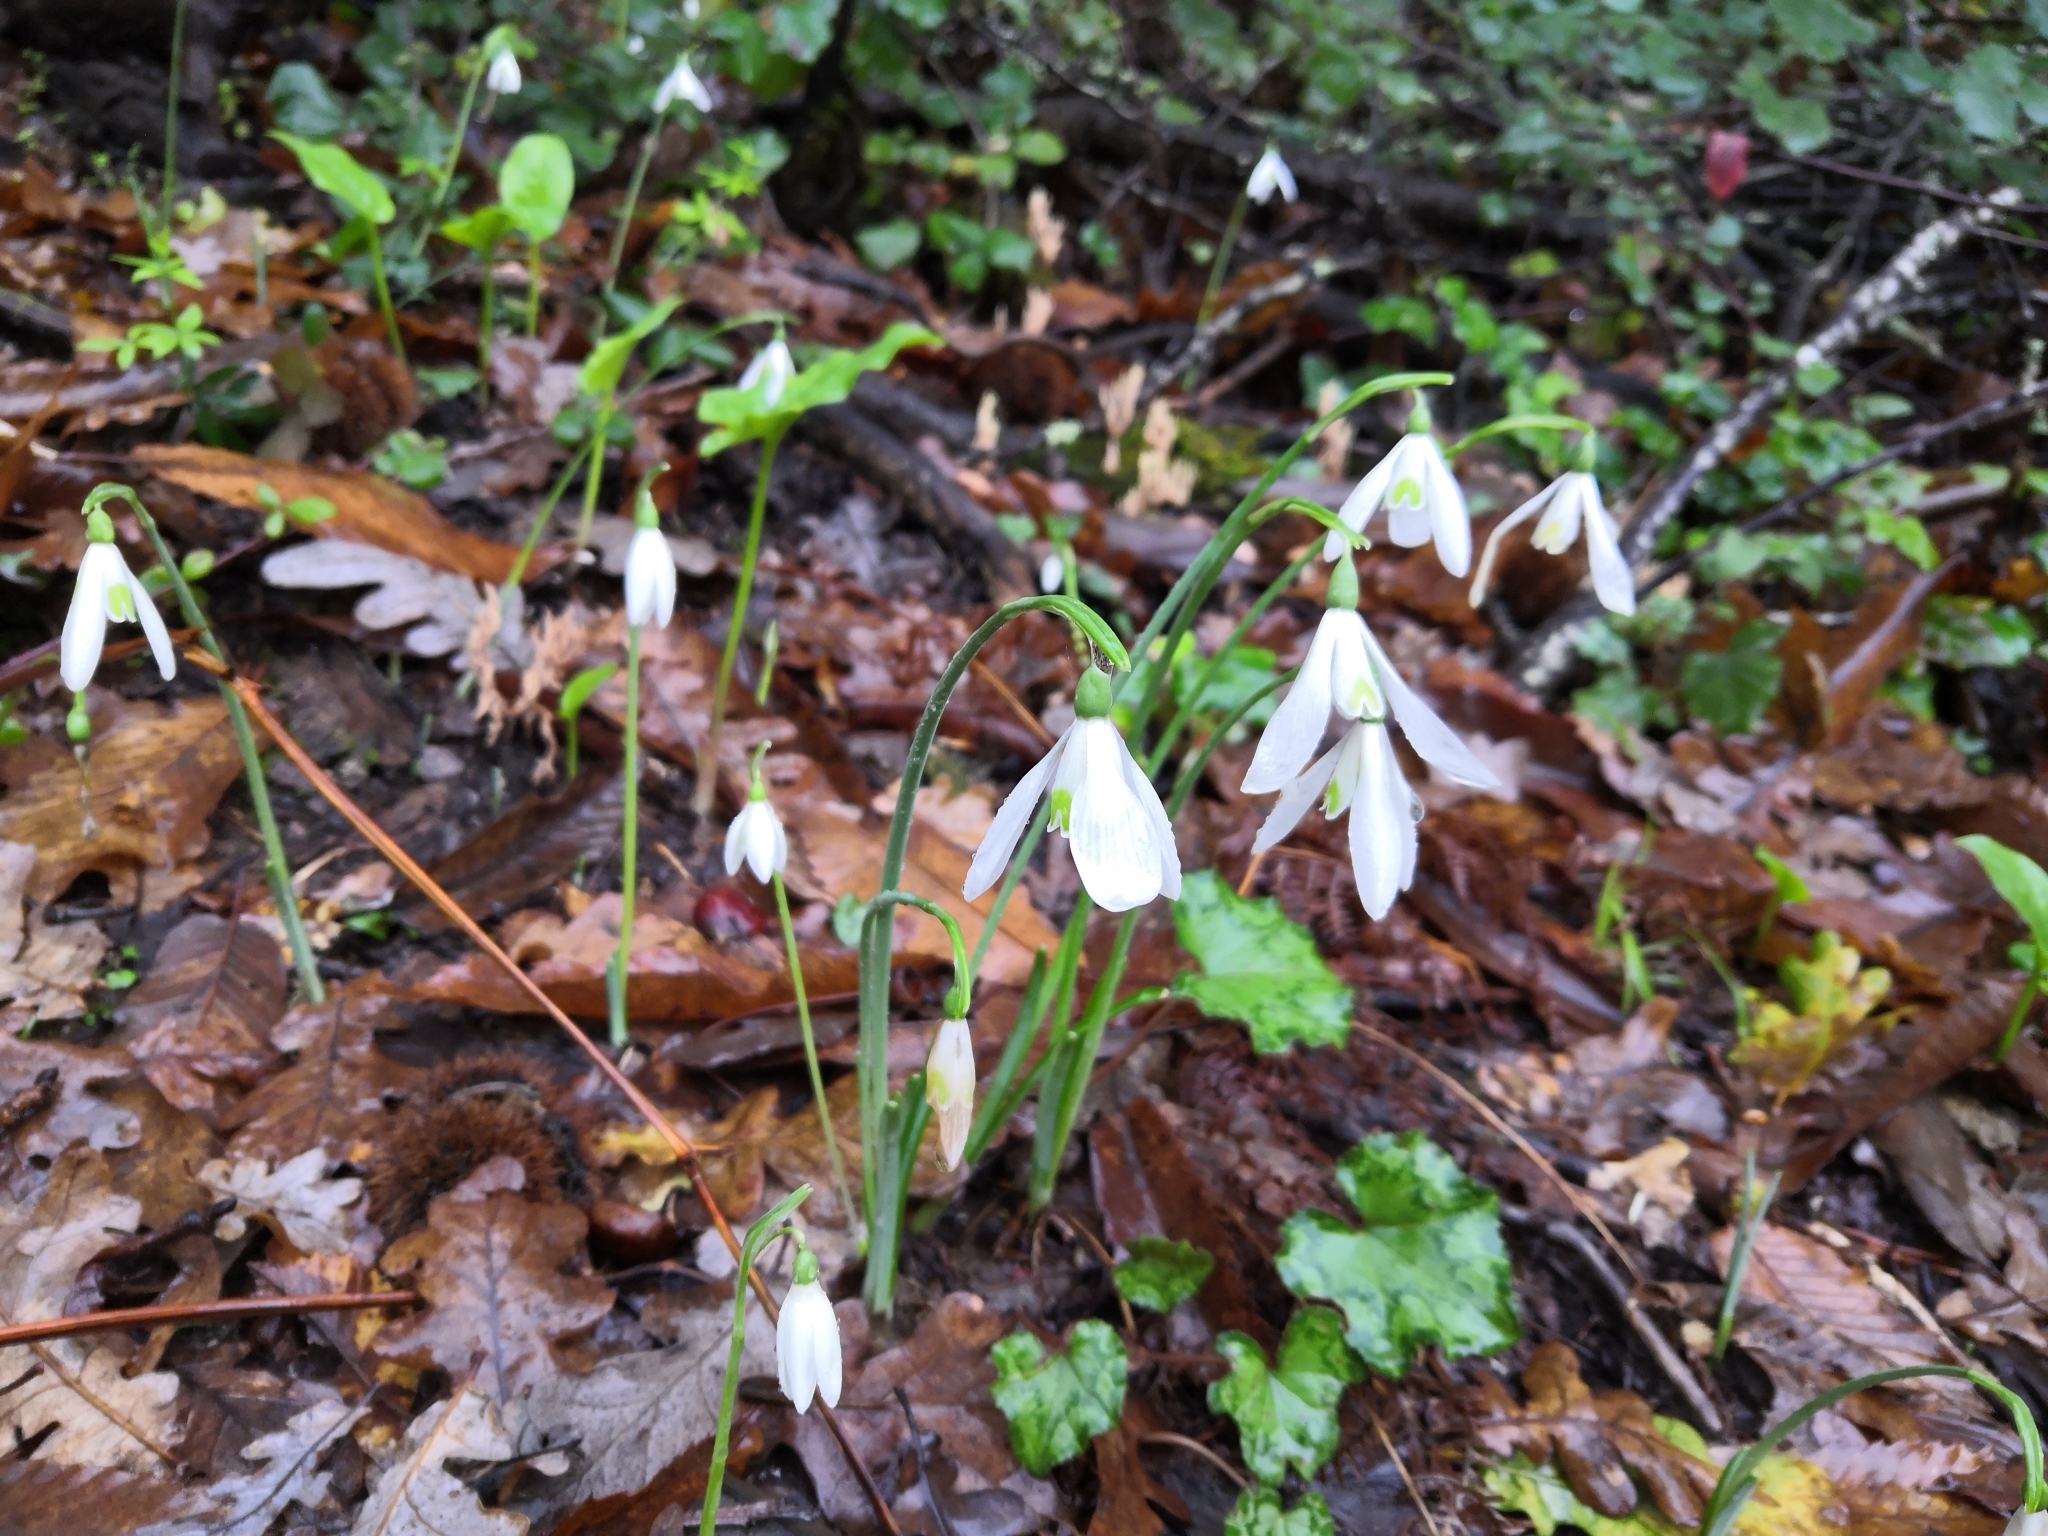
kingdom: Plantae
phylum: Tracheophyta
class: Liliopsida
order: Asparagales
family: Amaryllidaceae
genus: Galanthus
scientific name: Galanthus reginae-olgae
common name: Queen olga's snowdrop
